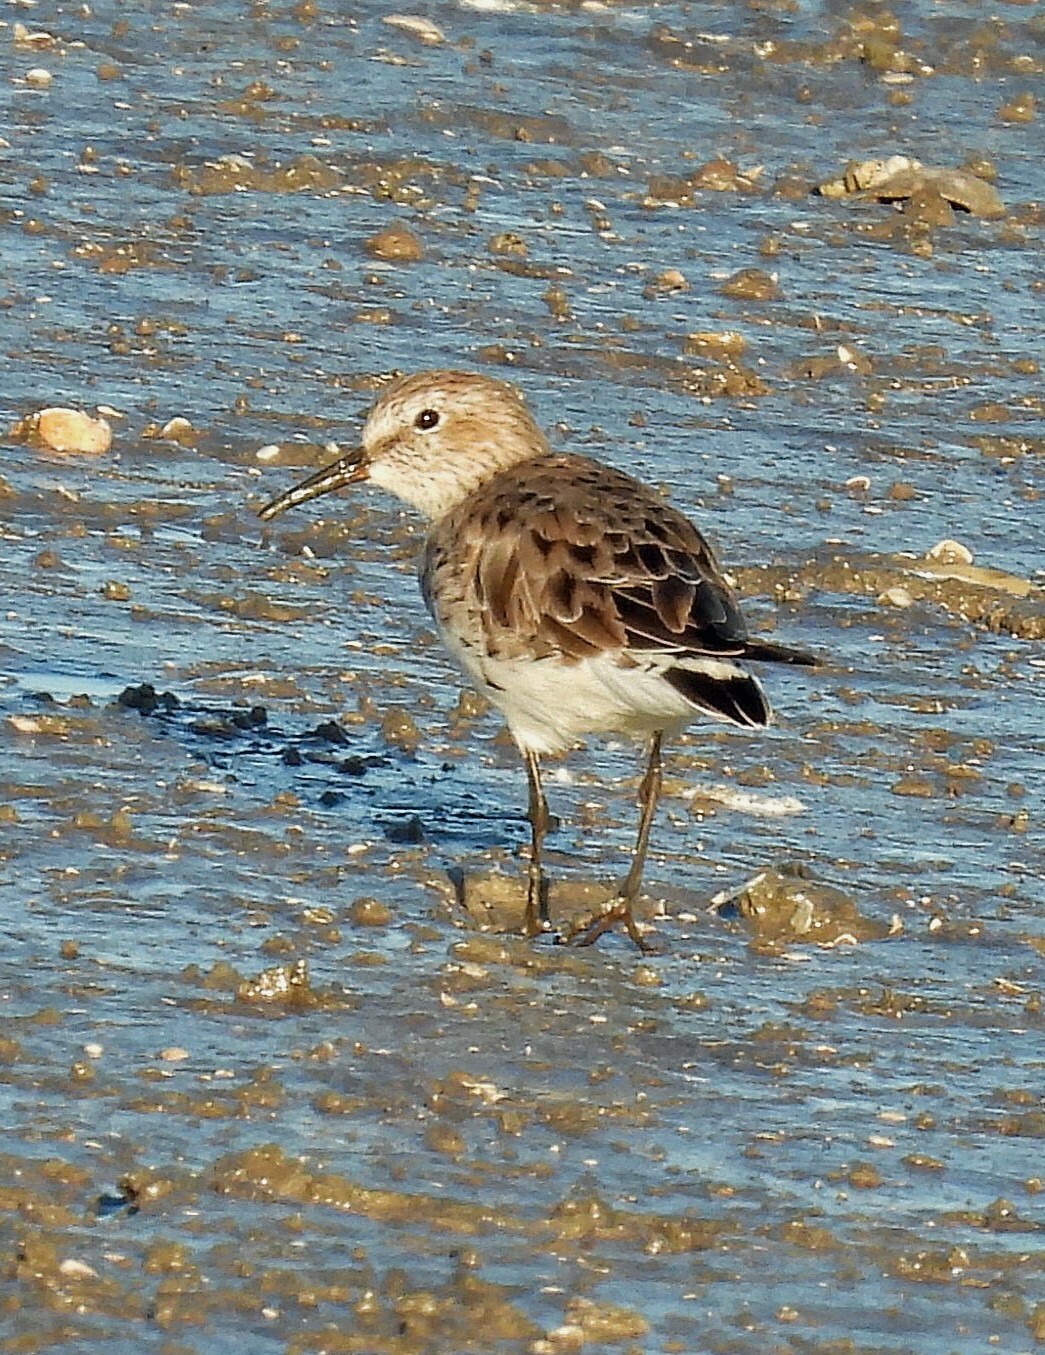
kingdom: Animalia
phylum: Chordata
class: Aves
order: Charadriiformes
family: Scolopacidae
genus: Calidris
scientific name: Calidris fuscicollis
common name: White-rumped sandpiper
